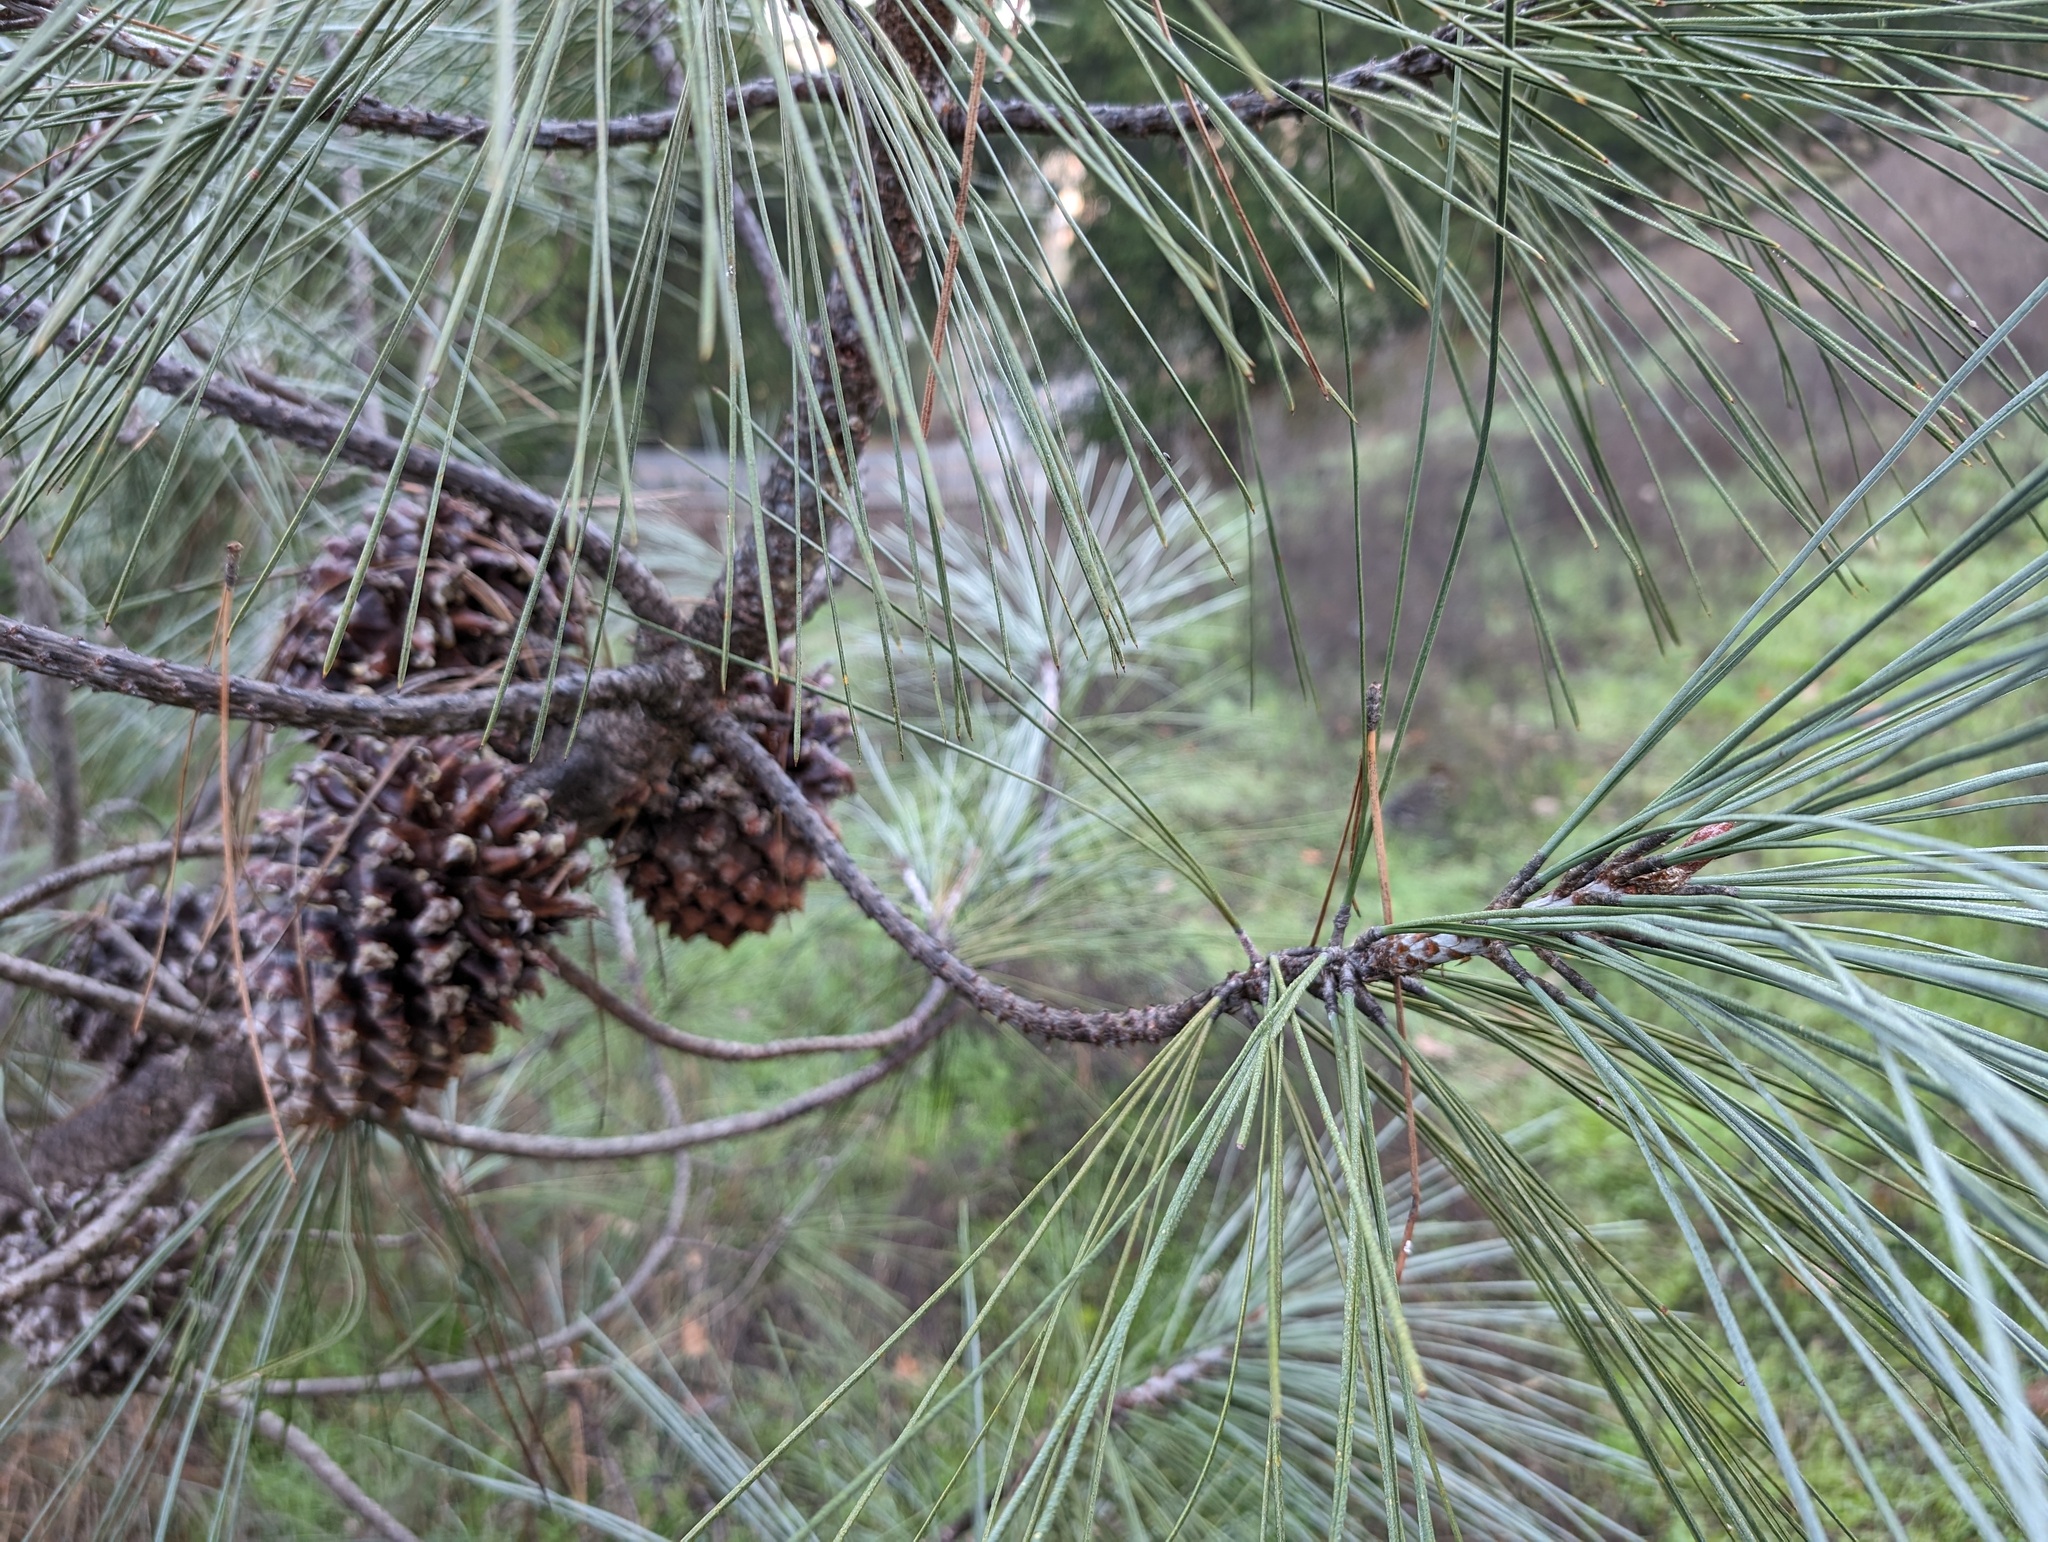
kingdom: Plantae
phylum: Tracheophyta
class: Pinopsida
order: Pinales
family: Pinaceae
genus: Pinus
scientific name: Pinus sabiniana
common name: Bull pine
